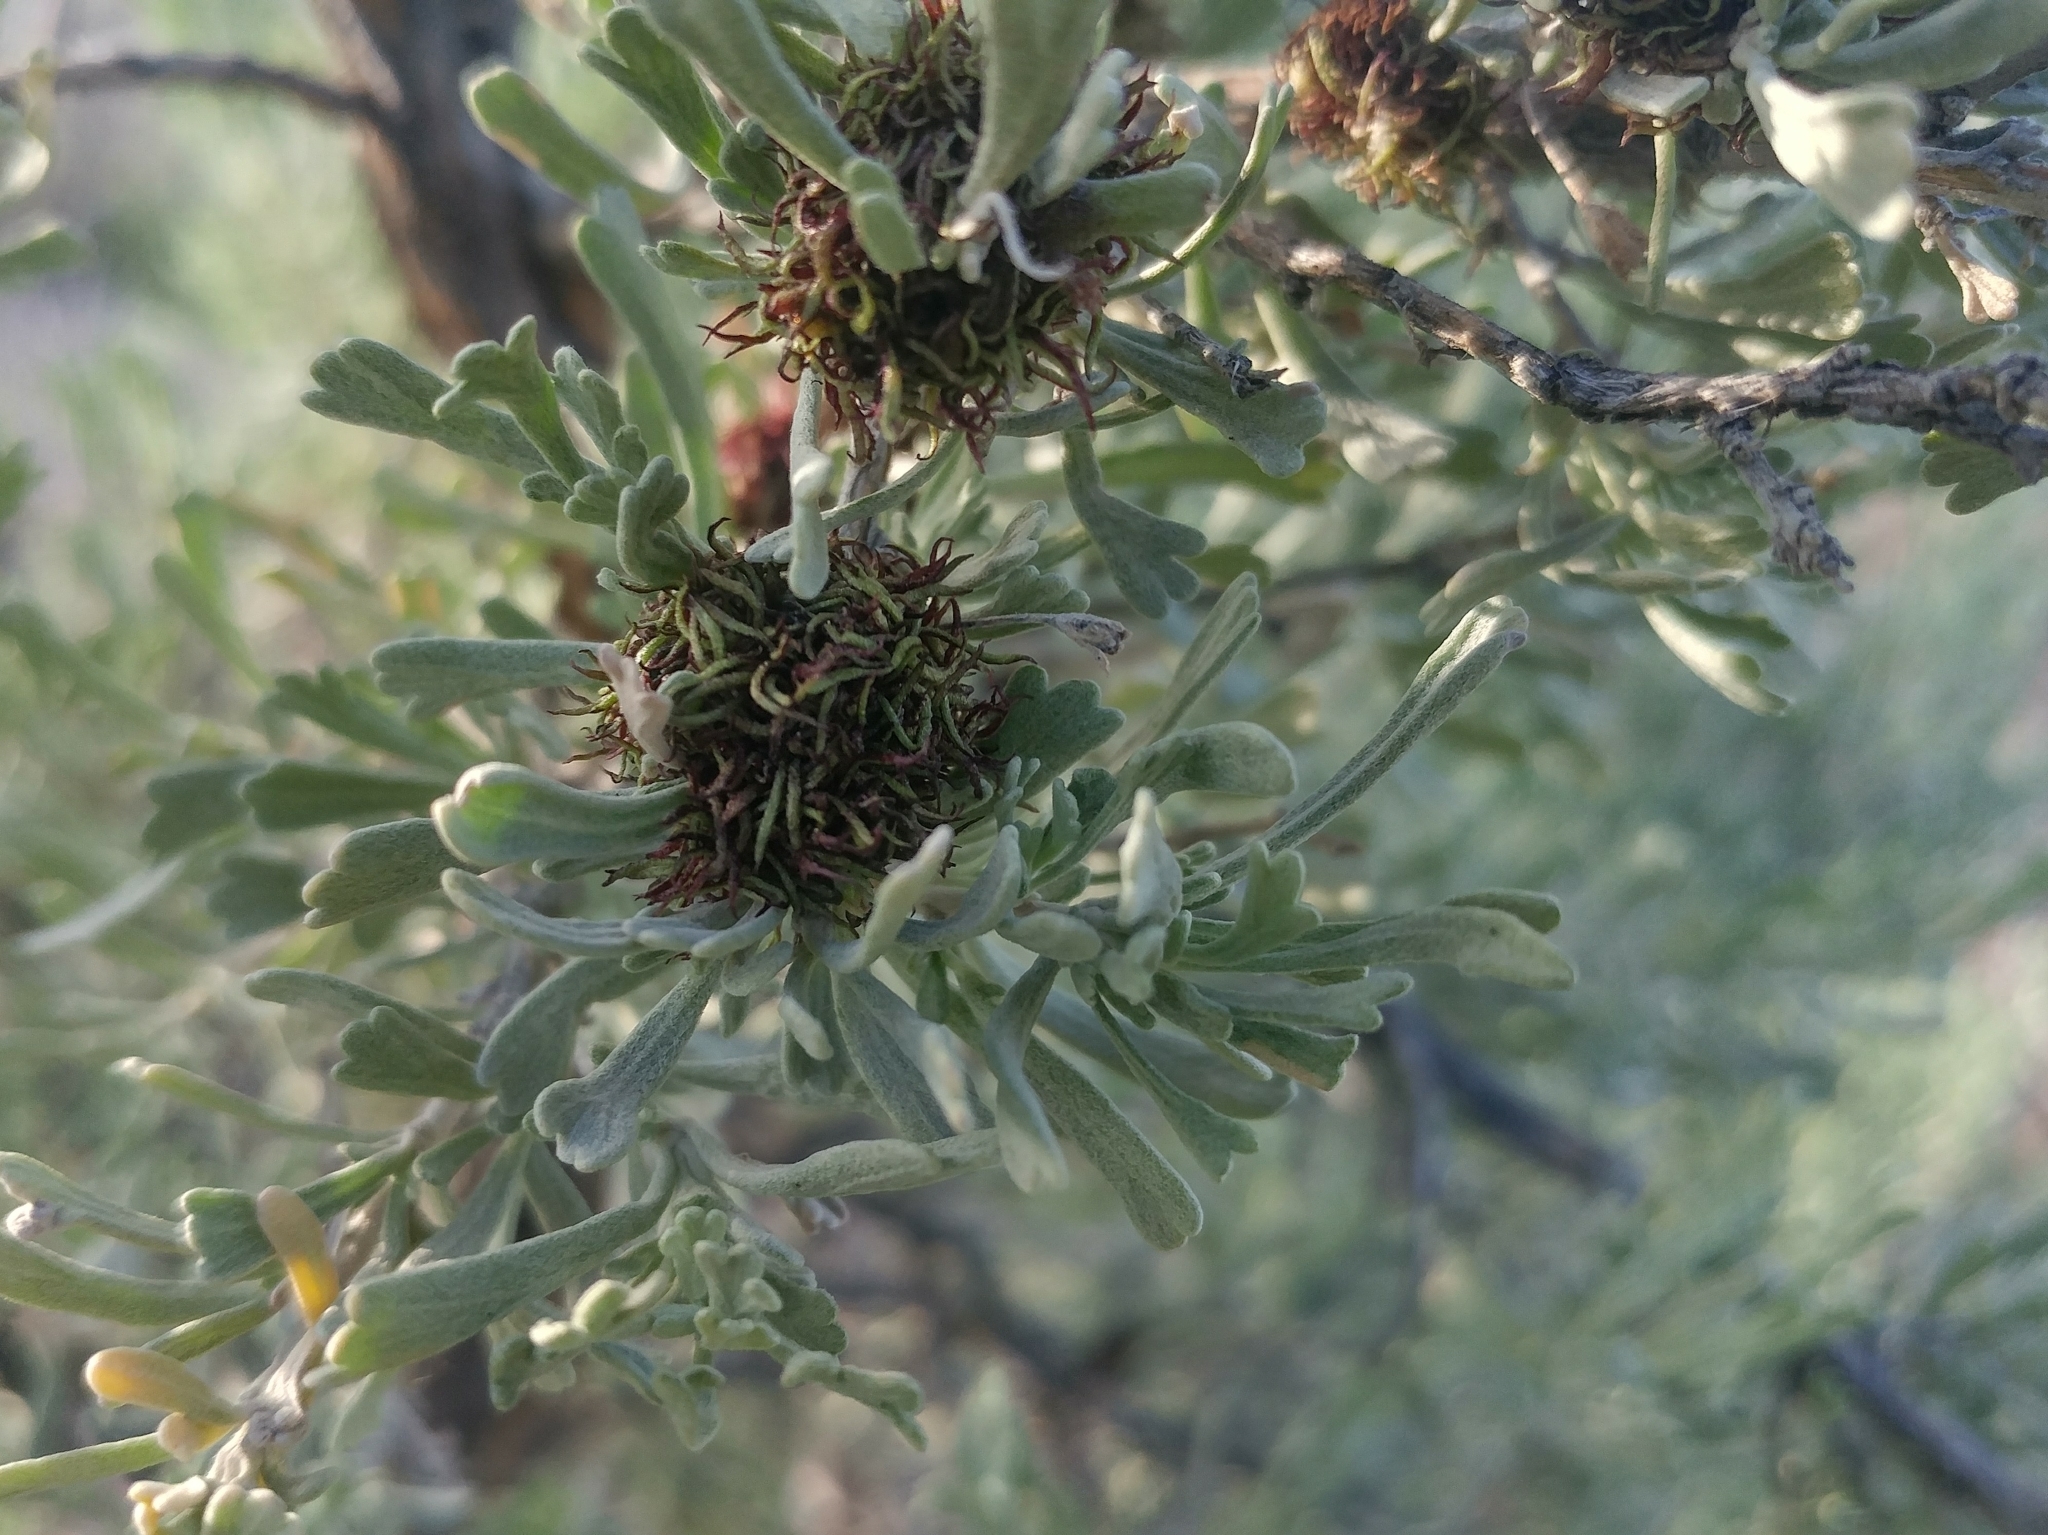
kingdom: Animalia
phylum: Arthropoda
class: Insecta
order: Diptera
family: Cecidomyiidae
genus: Rhopalomyia
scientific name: Rhopalomyia medusa
